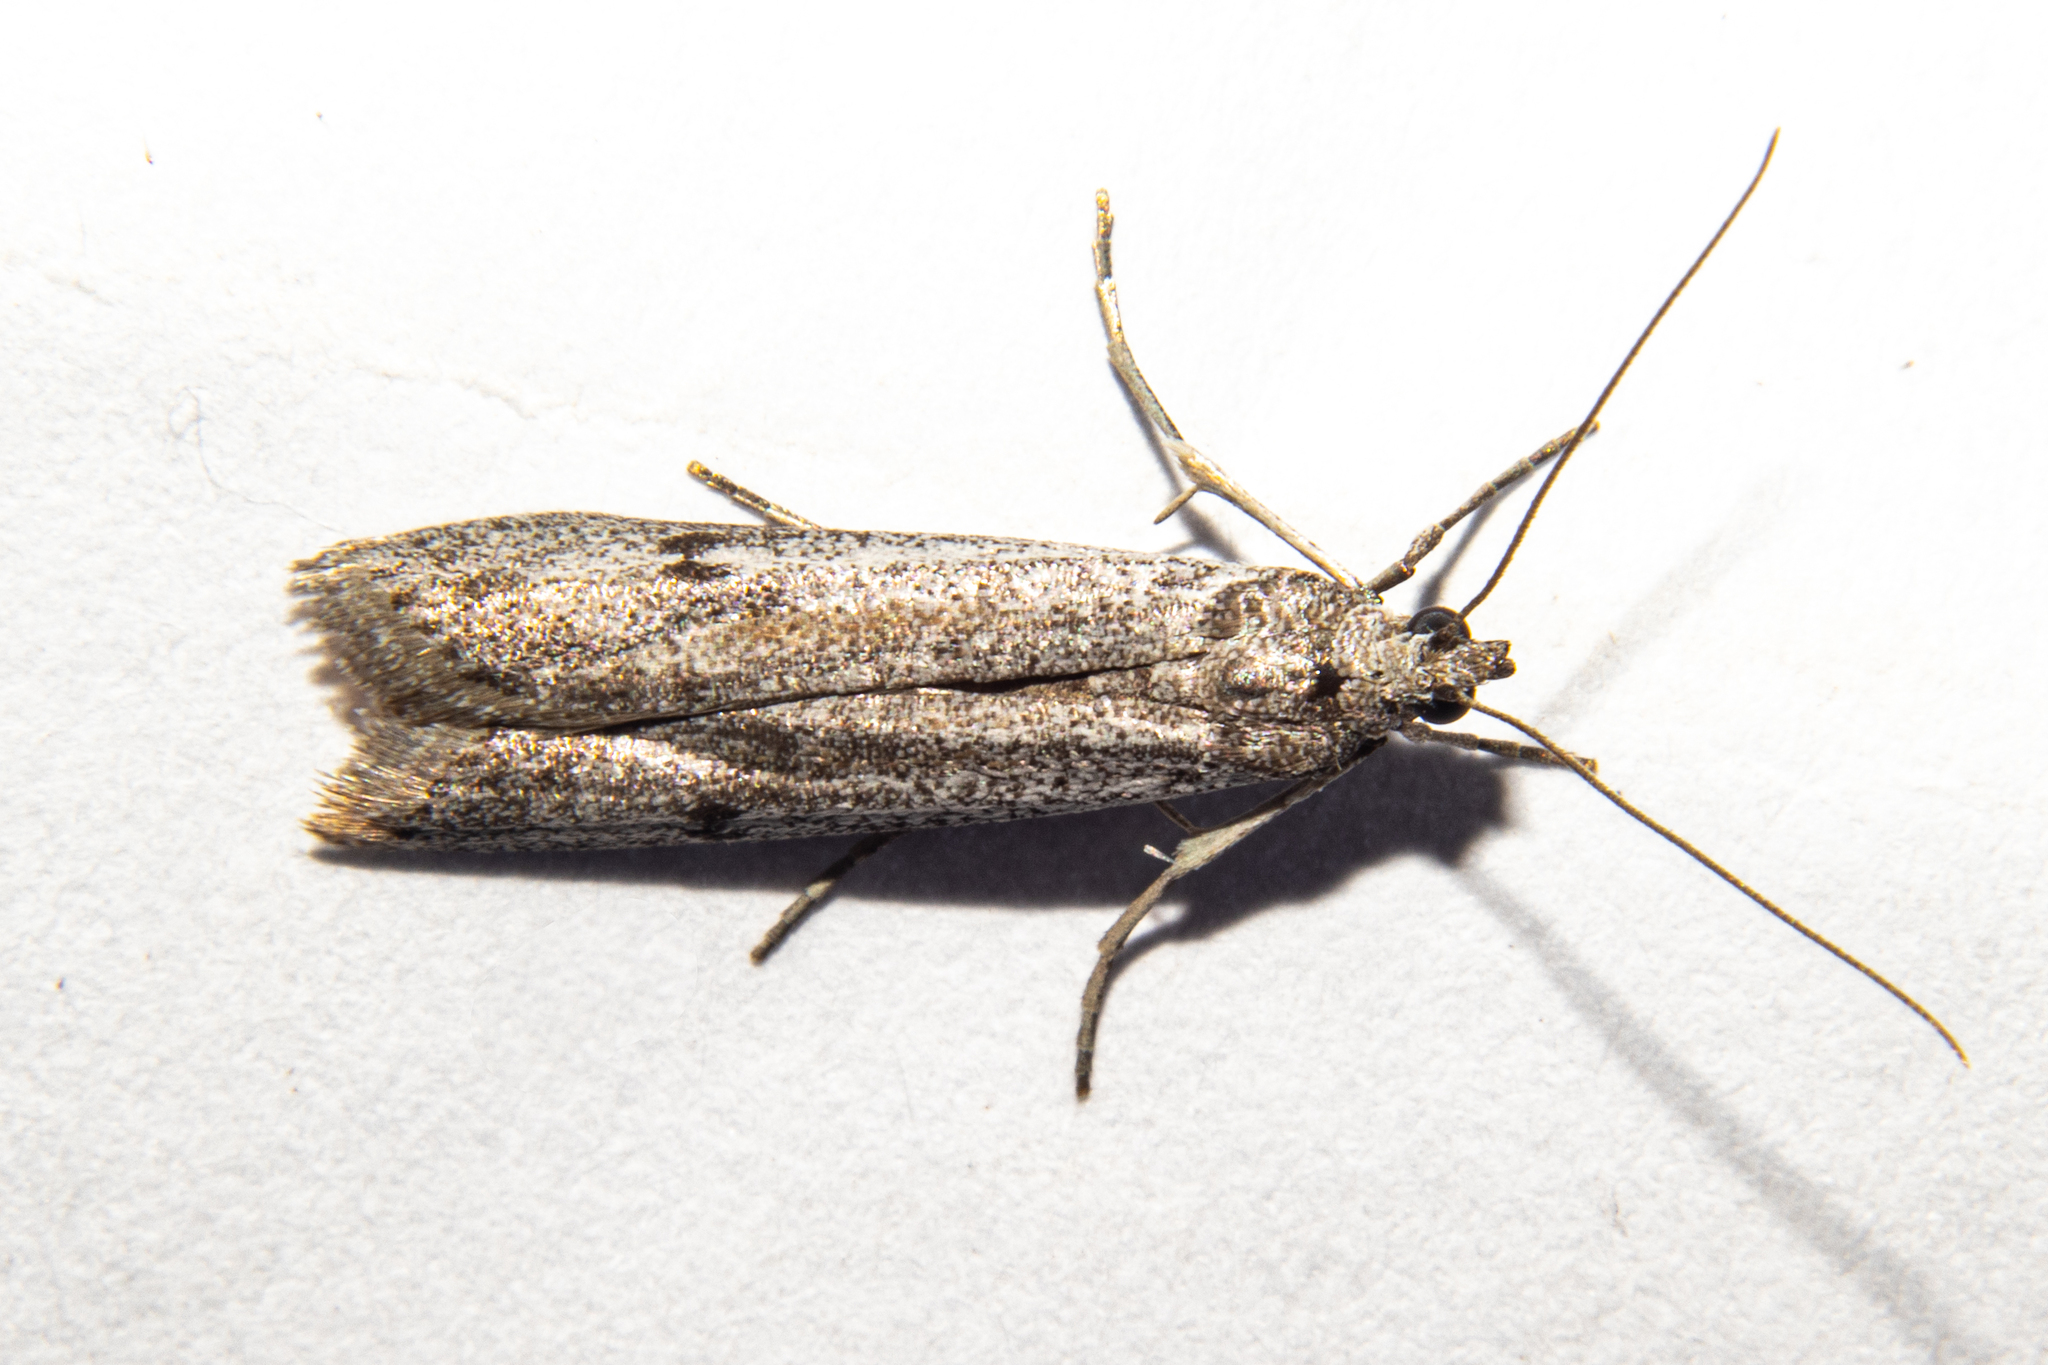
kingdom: Animalia
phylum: Arthropoda
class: Insecta
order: Lepidoptera
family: Pyralidae
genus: Homoeosoma
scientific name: Homoeosoma anaspila
